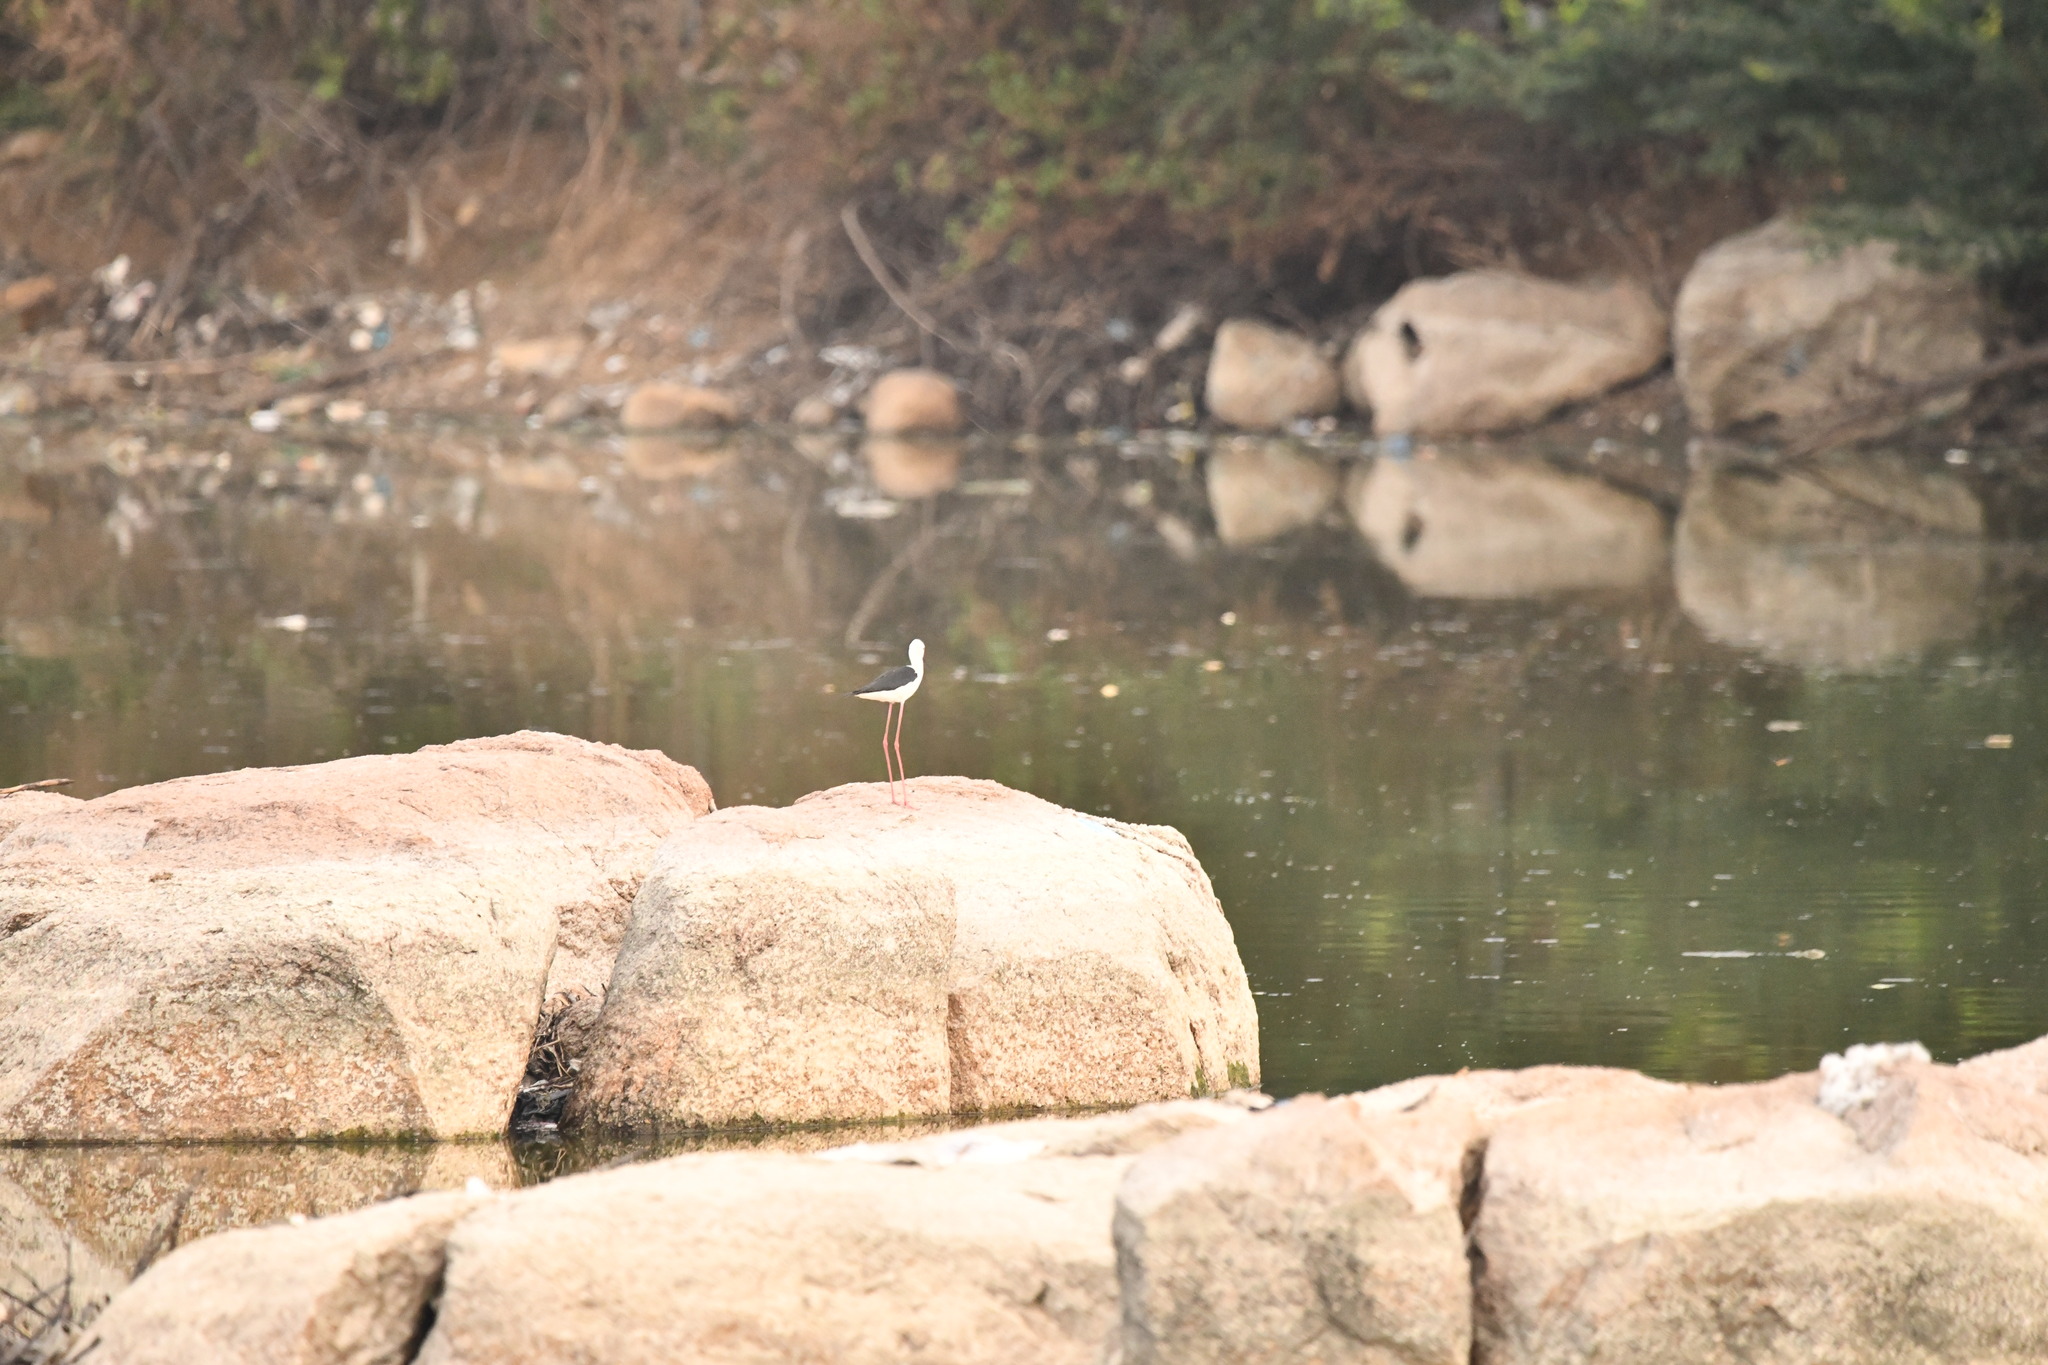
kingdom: Animalia
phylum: Chordata
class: Aves
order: Charadriiformes
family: Recurvirostridae
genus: Himantopus
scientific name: Himantopus himantopus
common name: Black-winged stilt
